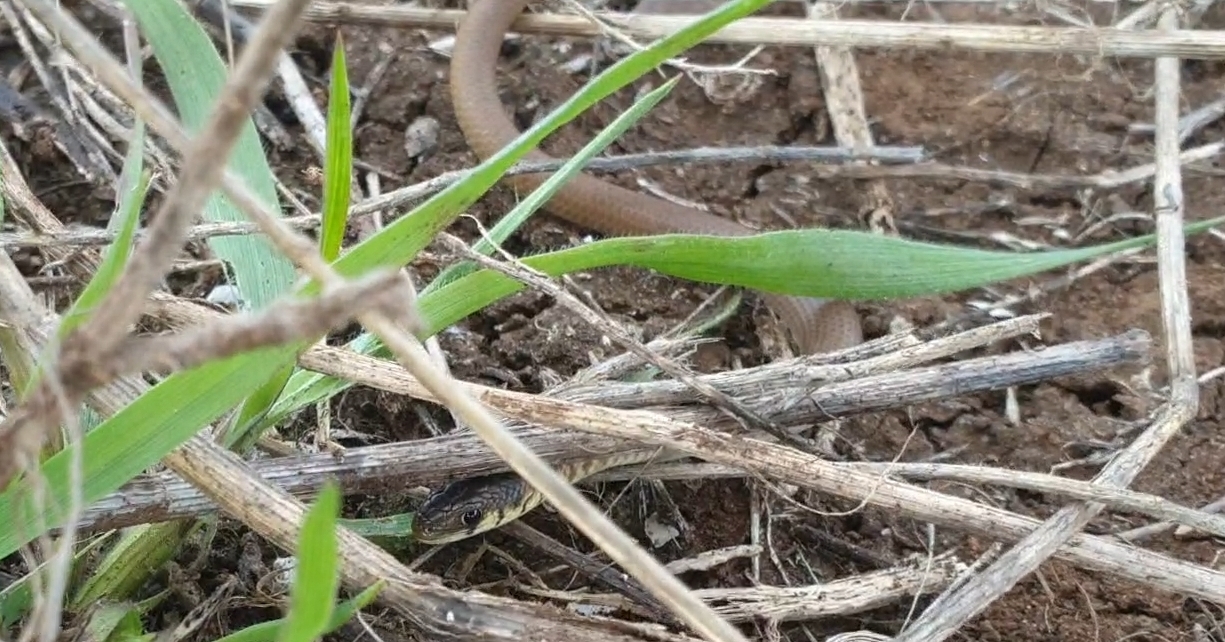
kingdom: Animalia
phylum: Chordata
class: Squamata
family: Pygopodidae
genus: Delma
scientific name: Delma molleri
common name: Gulfs delma
